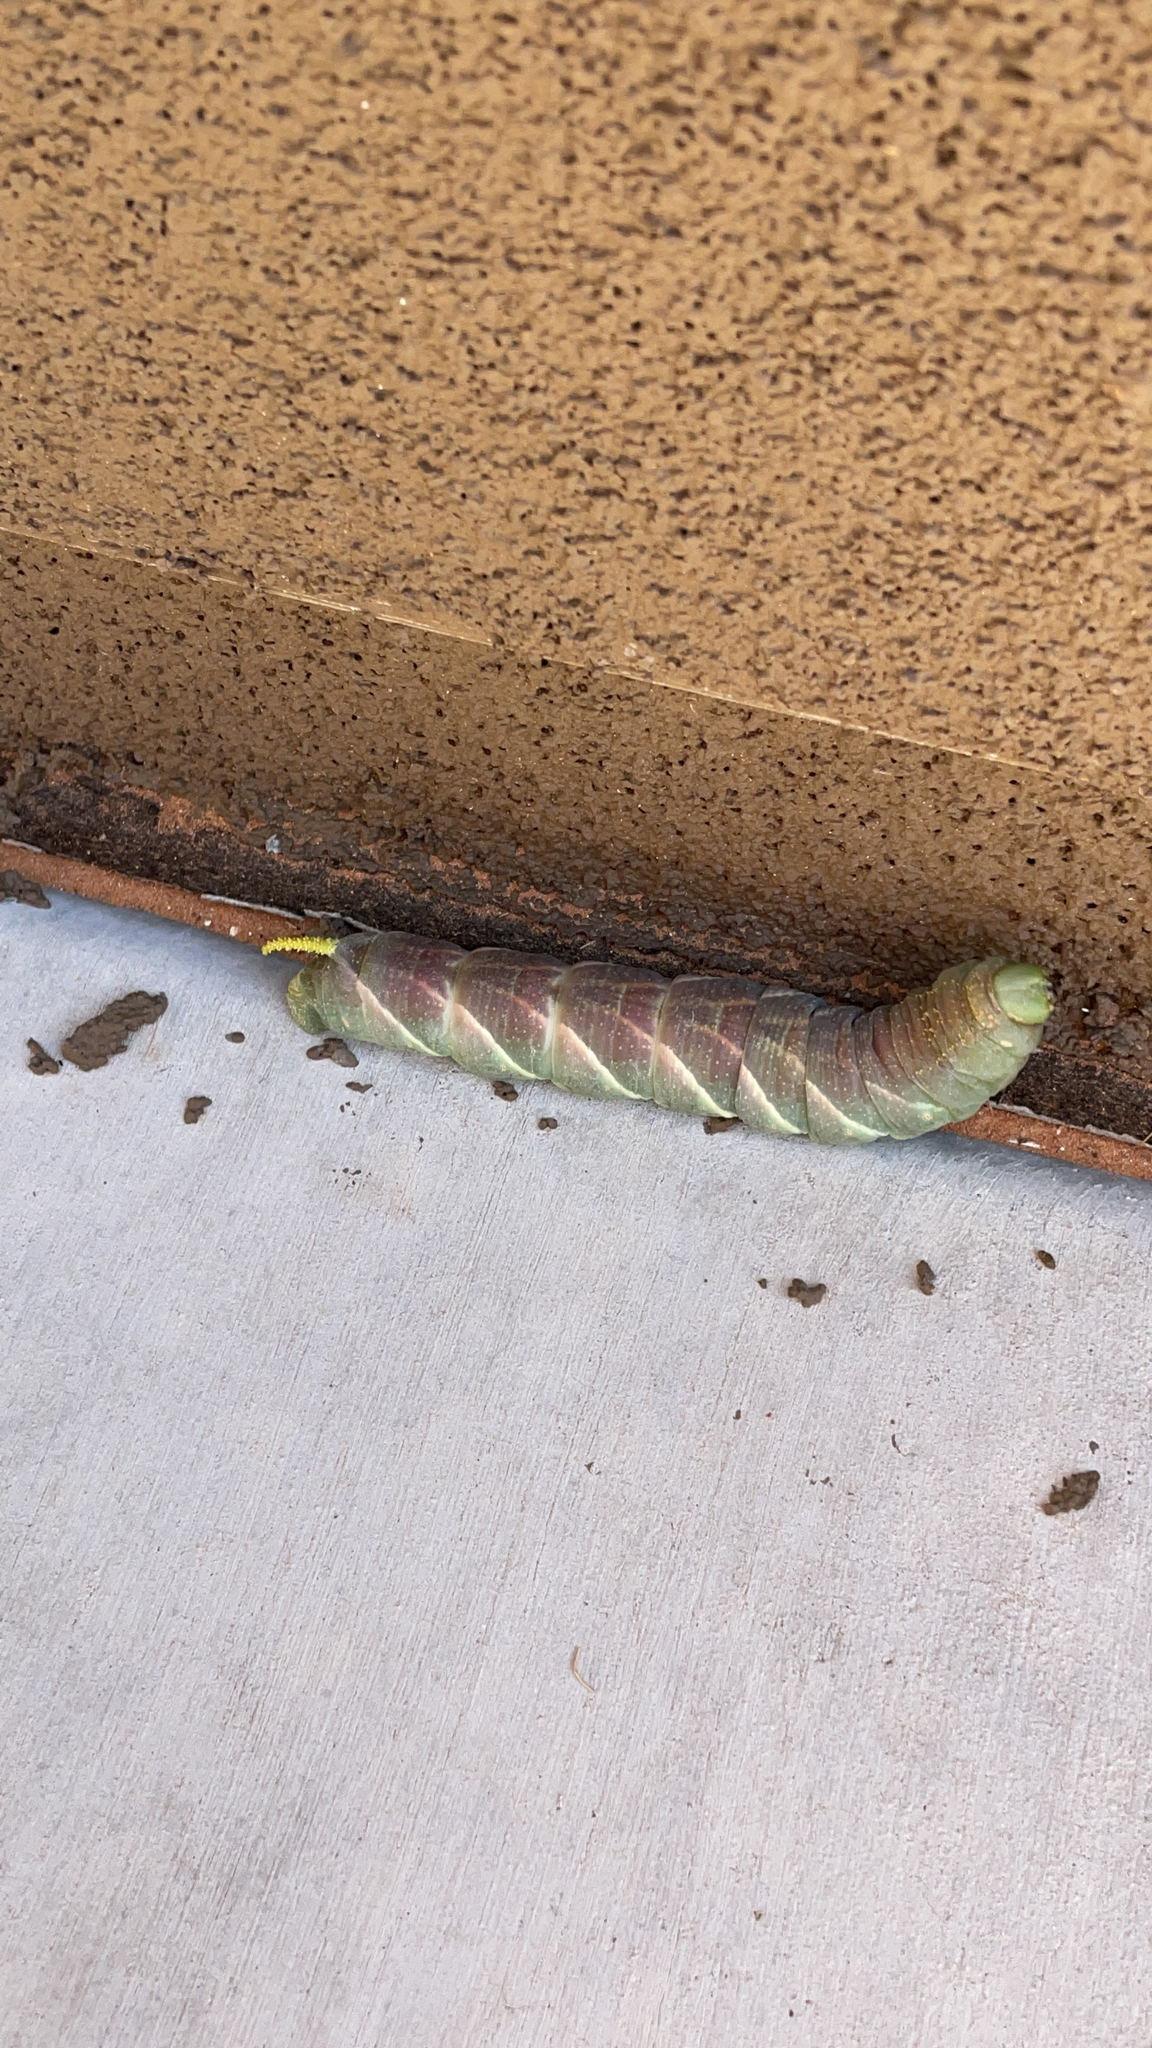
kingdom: Animalia
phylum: Arthropoda
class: Insecta
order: Lepidoptera
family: Sphingidae
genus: Manduca
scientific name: Manduca rustica
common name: Rustic sphinx
